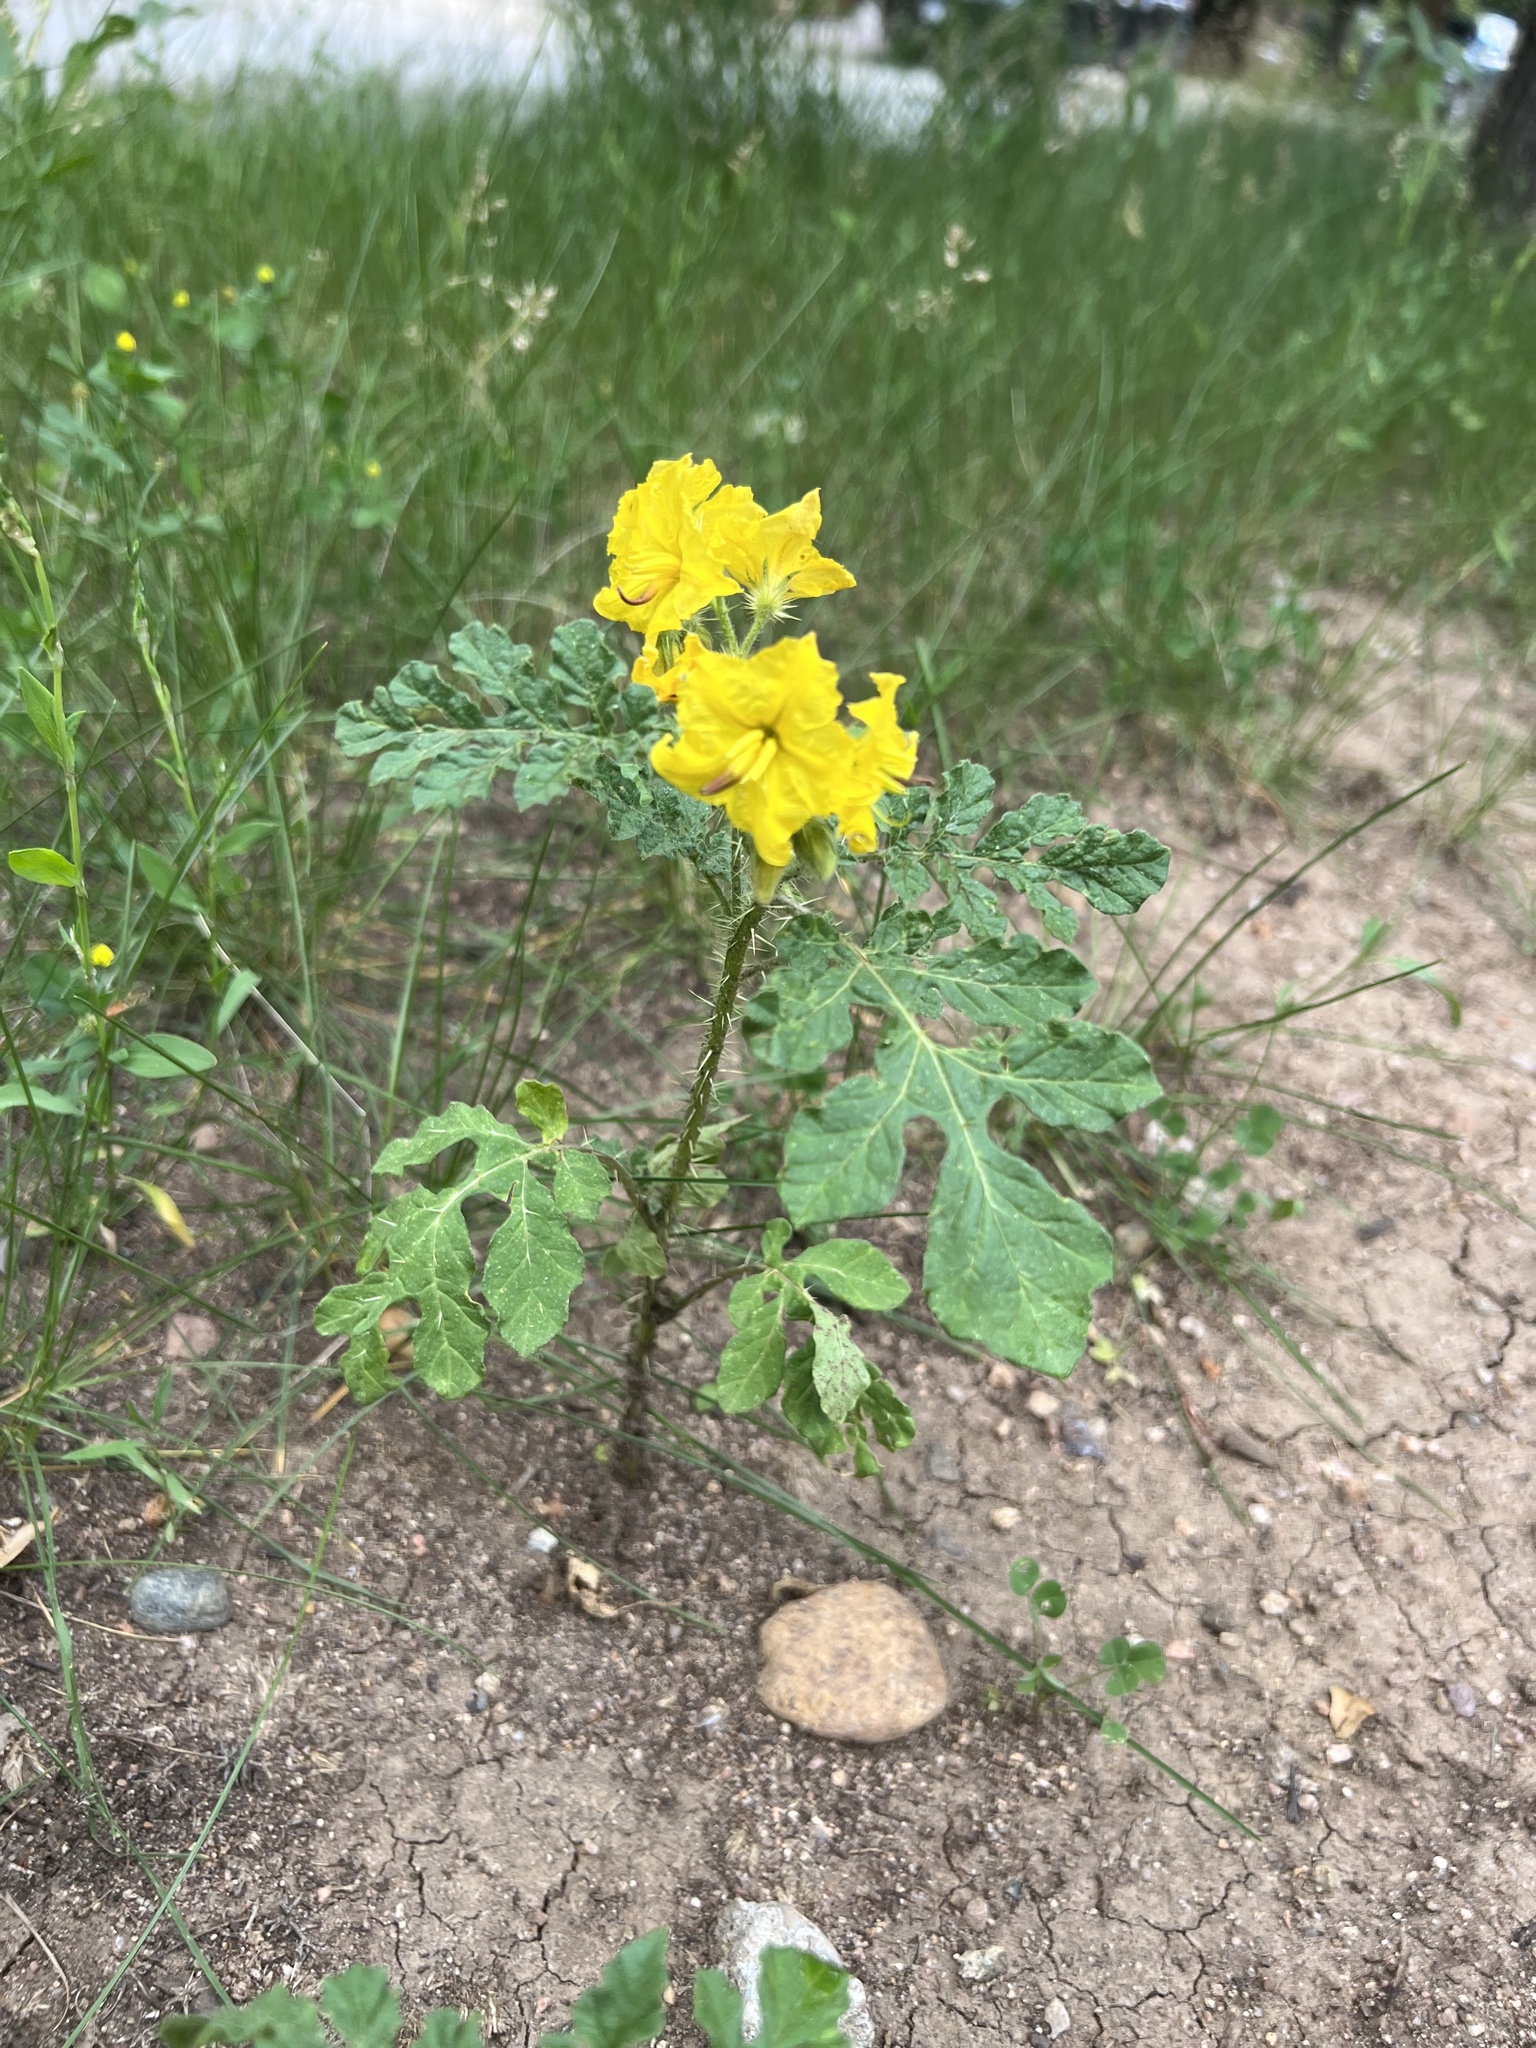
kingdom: Plantae
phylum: Tracheophyta
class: Magnoliopsida
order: Solanales
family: Solanaceae
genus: Solanum
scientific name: Solanum angustifolium
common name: Buffalobur nightshade
